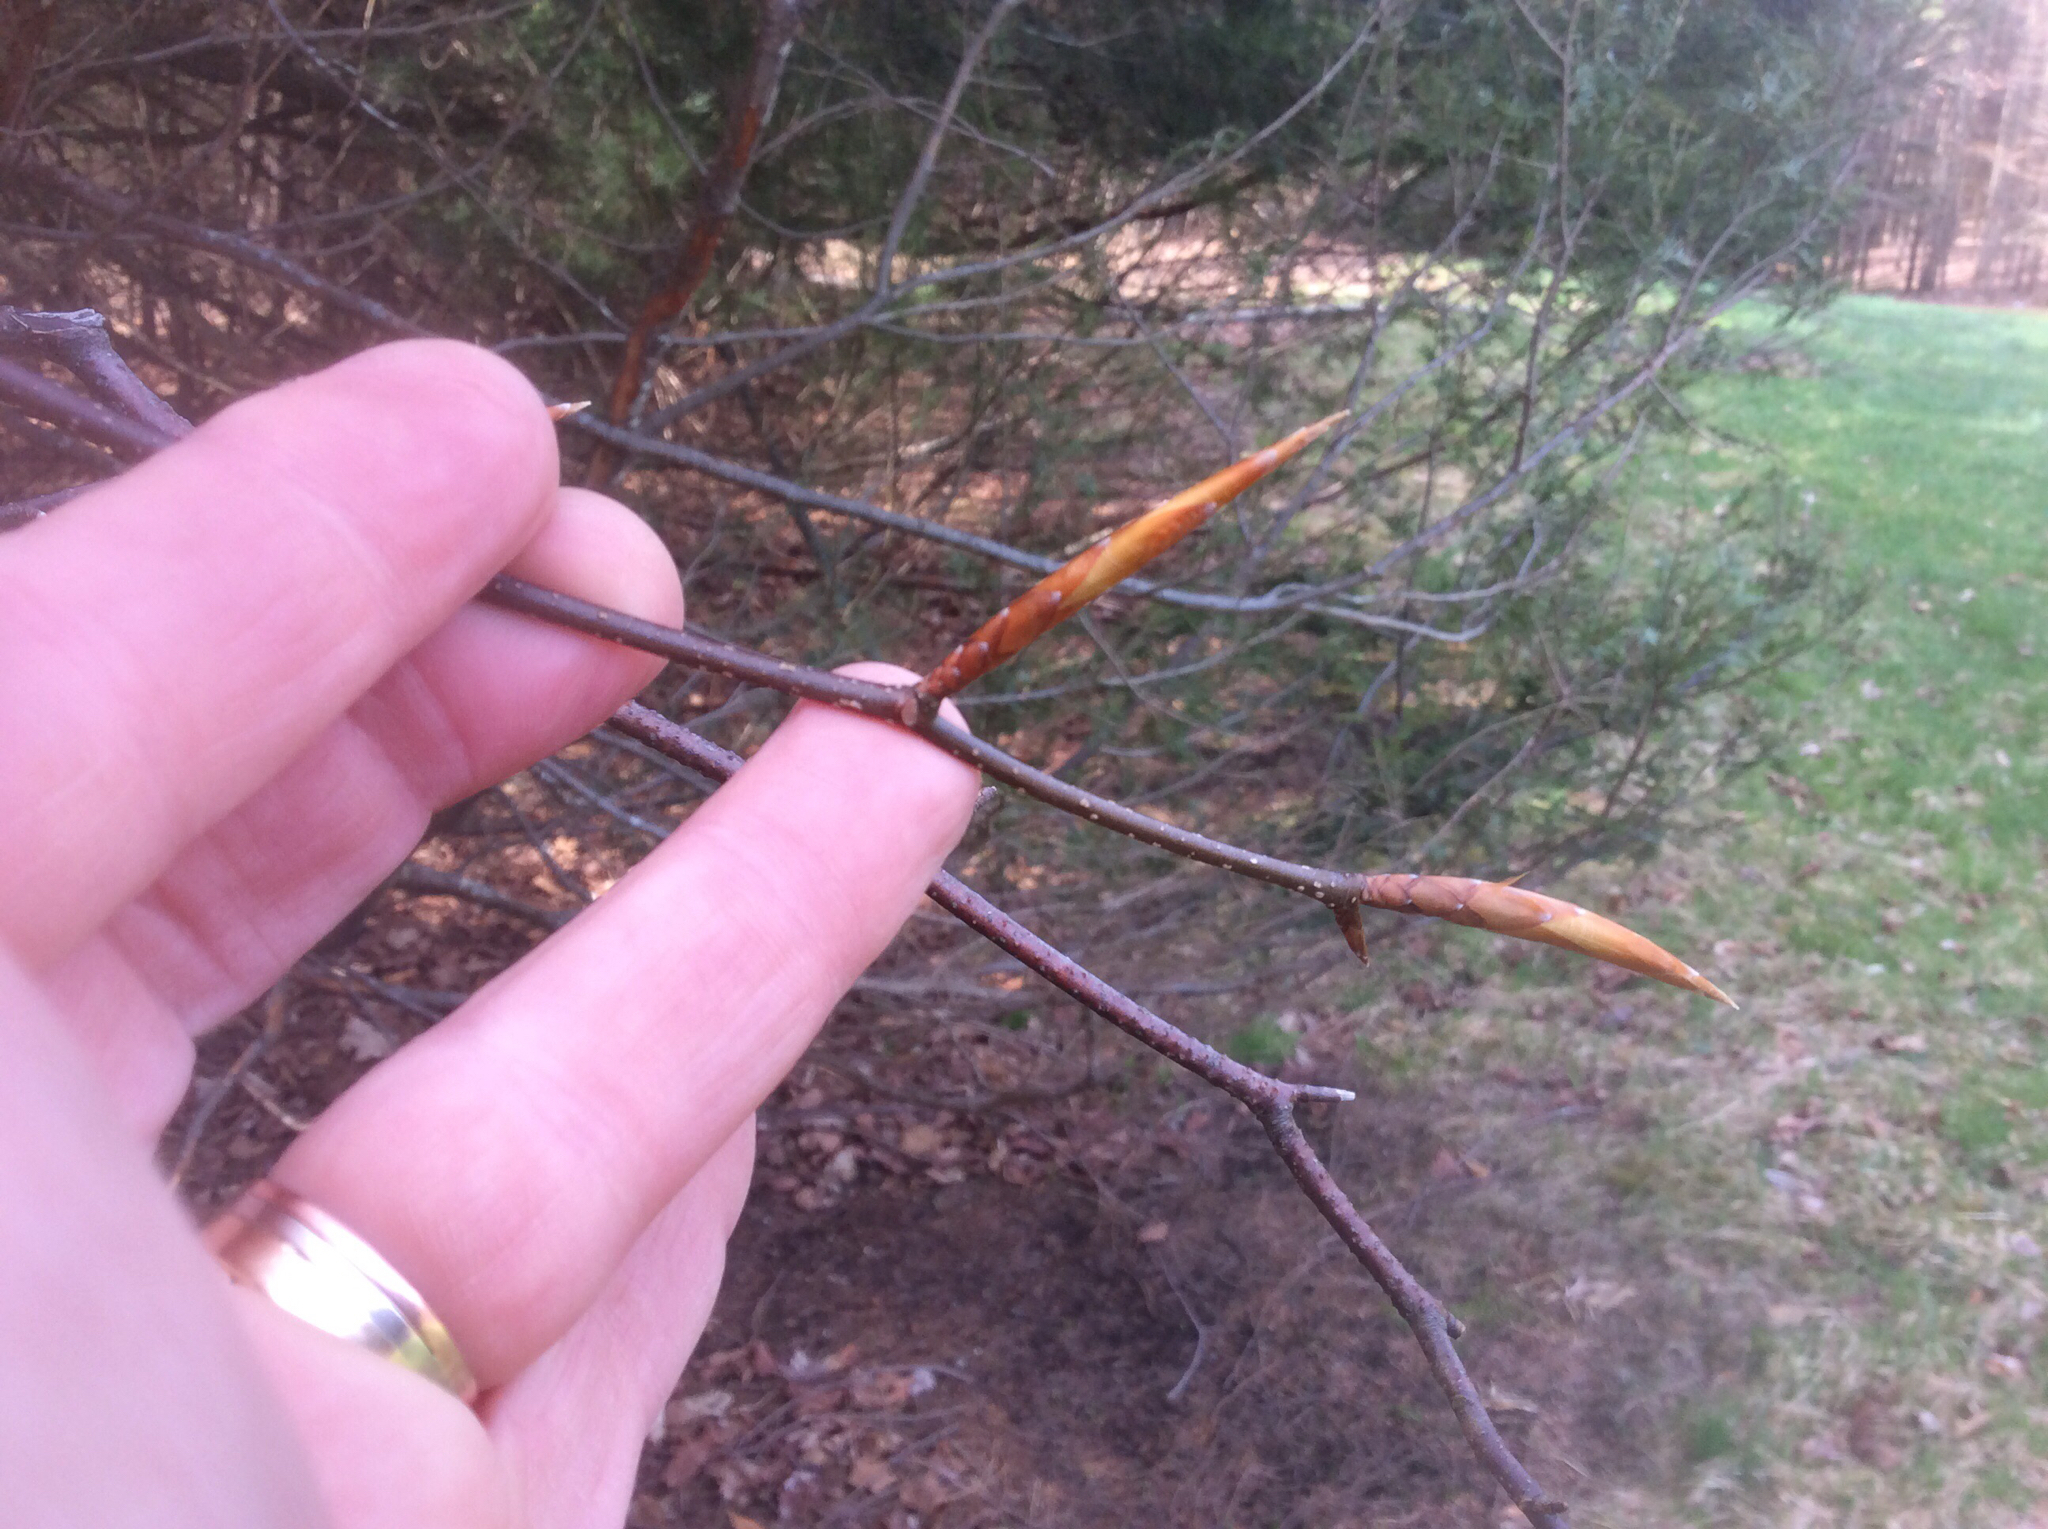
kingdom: Plantae
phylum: Tracheophyta
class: Magnoliopsida
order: Fagales
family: Fagaceae
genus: Fagus
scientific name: Fagus grandifolia
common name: American beech
